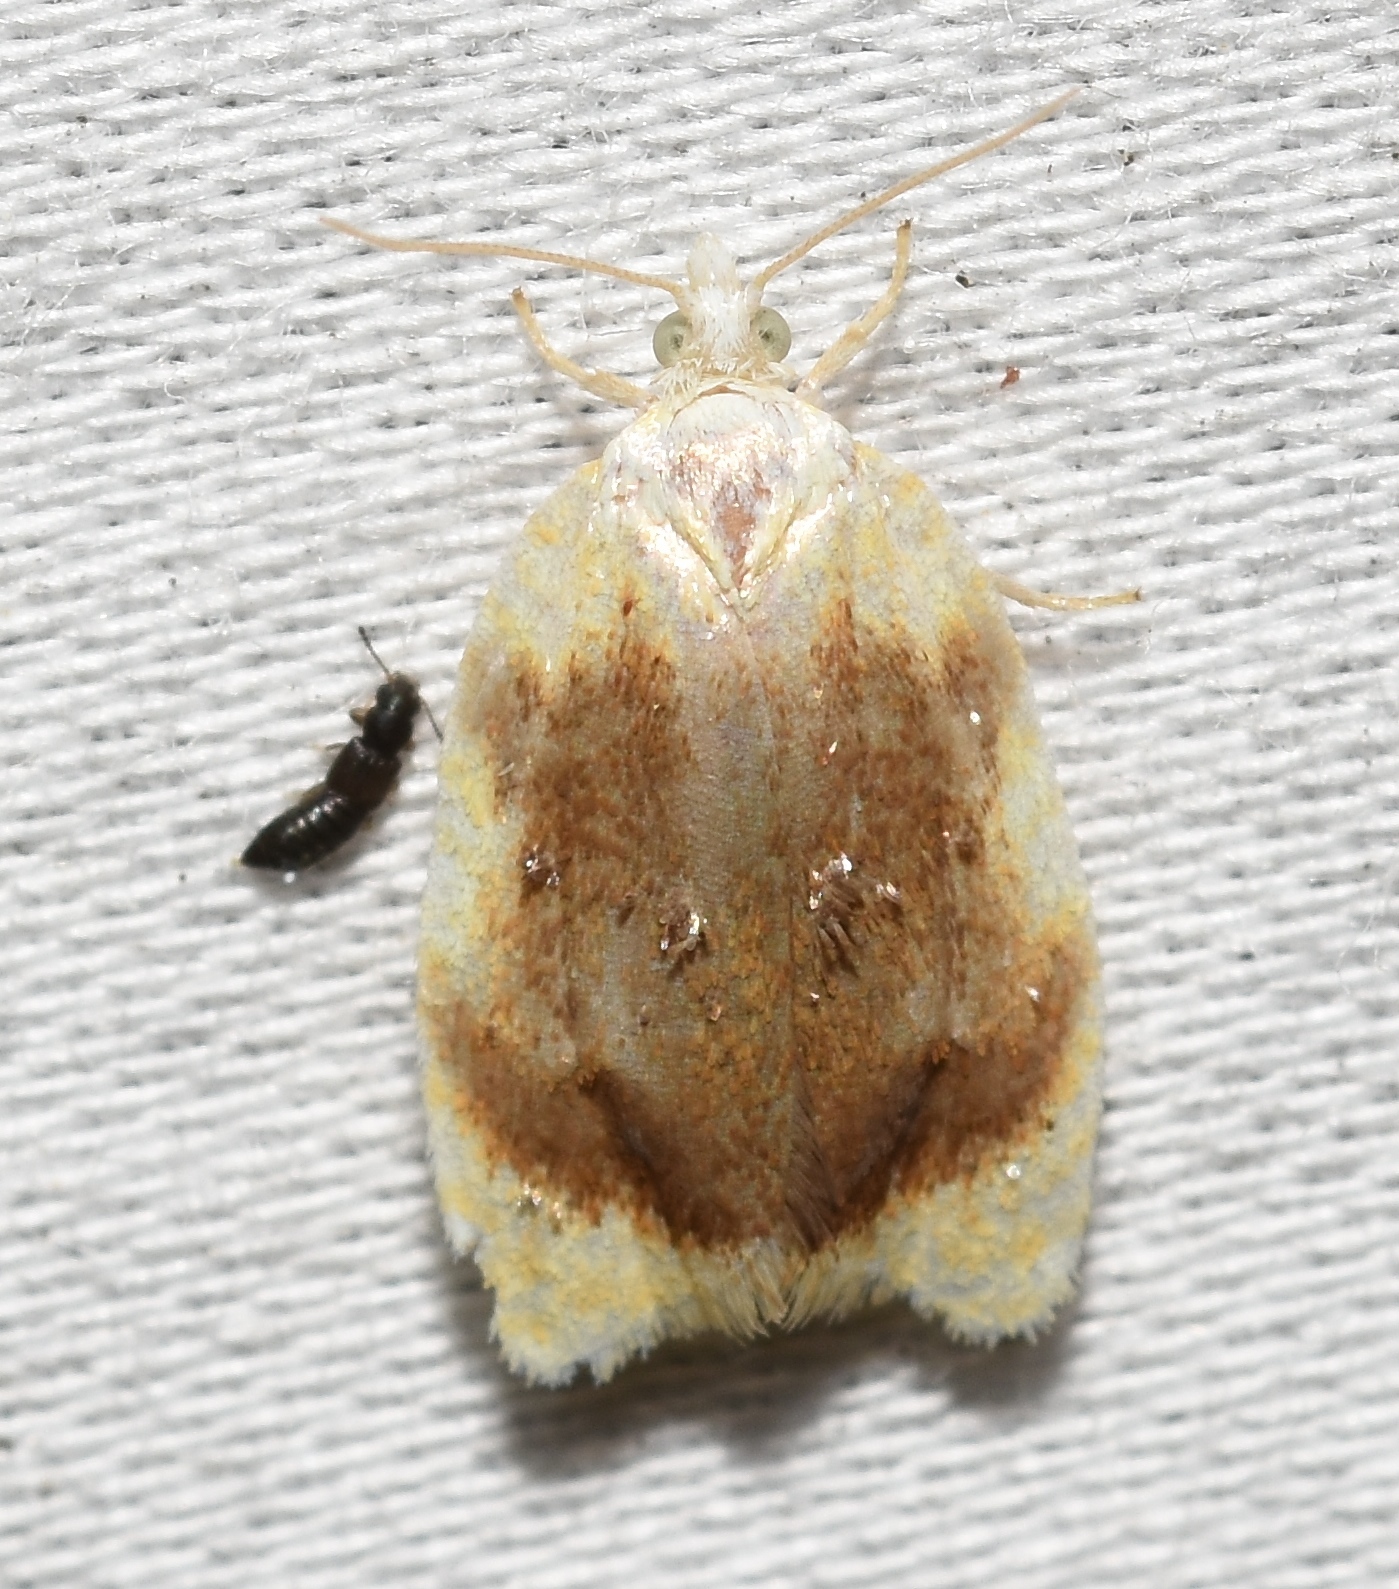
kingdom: Animalia
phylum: Arthropoda
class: Insecta
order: Lepidoptera
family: Tortricidae
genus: Acleris
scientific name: Acleris semipurpurana
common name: Oak leaftier moth
